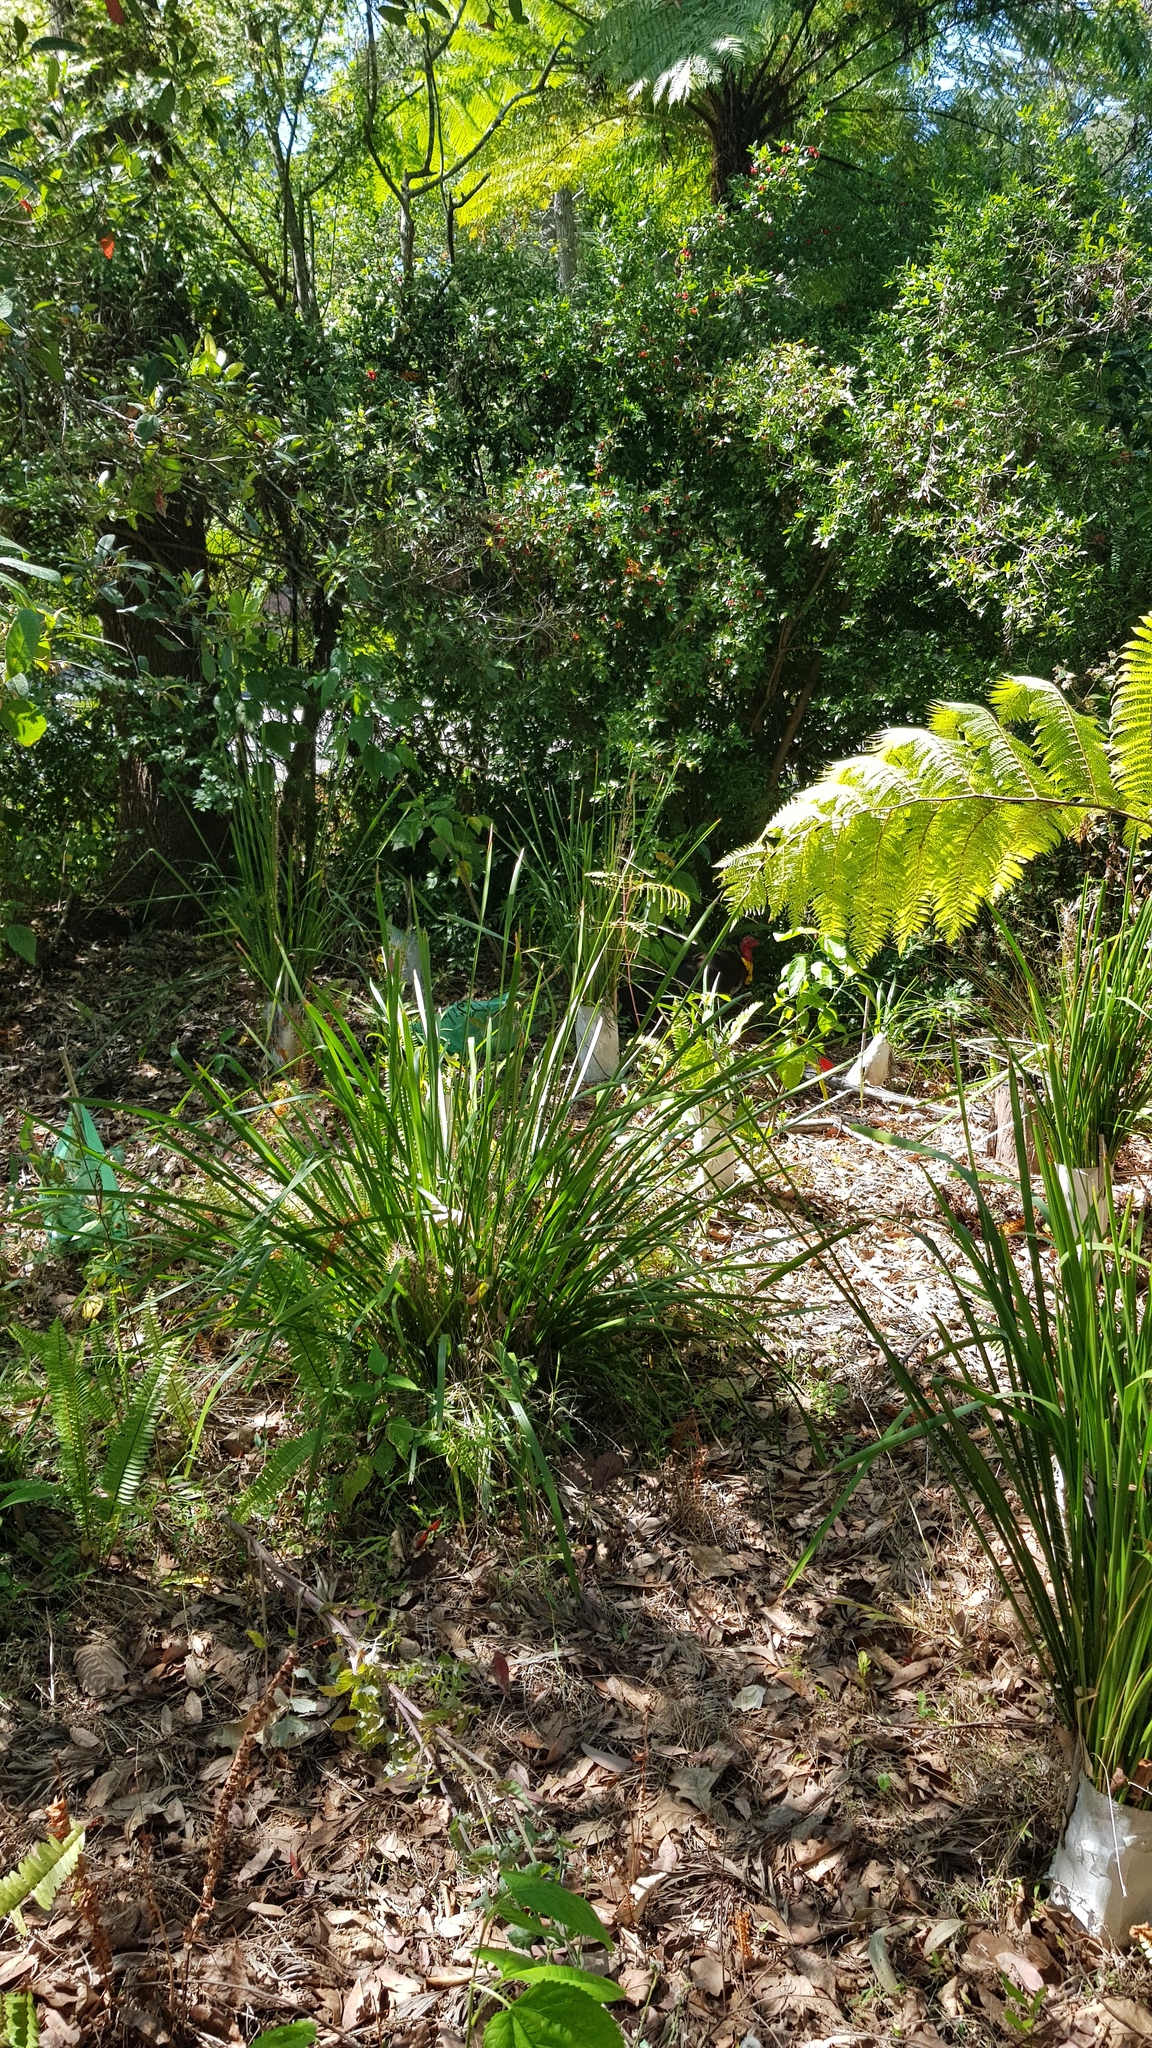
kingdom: Animalia
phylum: Chordata
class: Aves
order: Galliformes
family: Megapodiidae
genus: Alectura
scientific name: Alectura lathami
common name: Australian brushturkey
